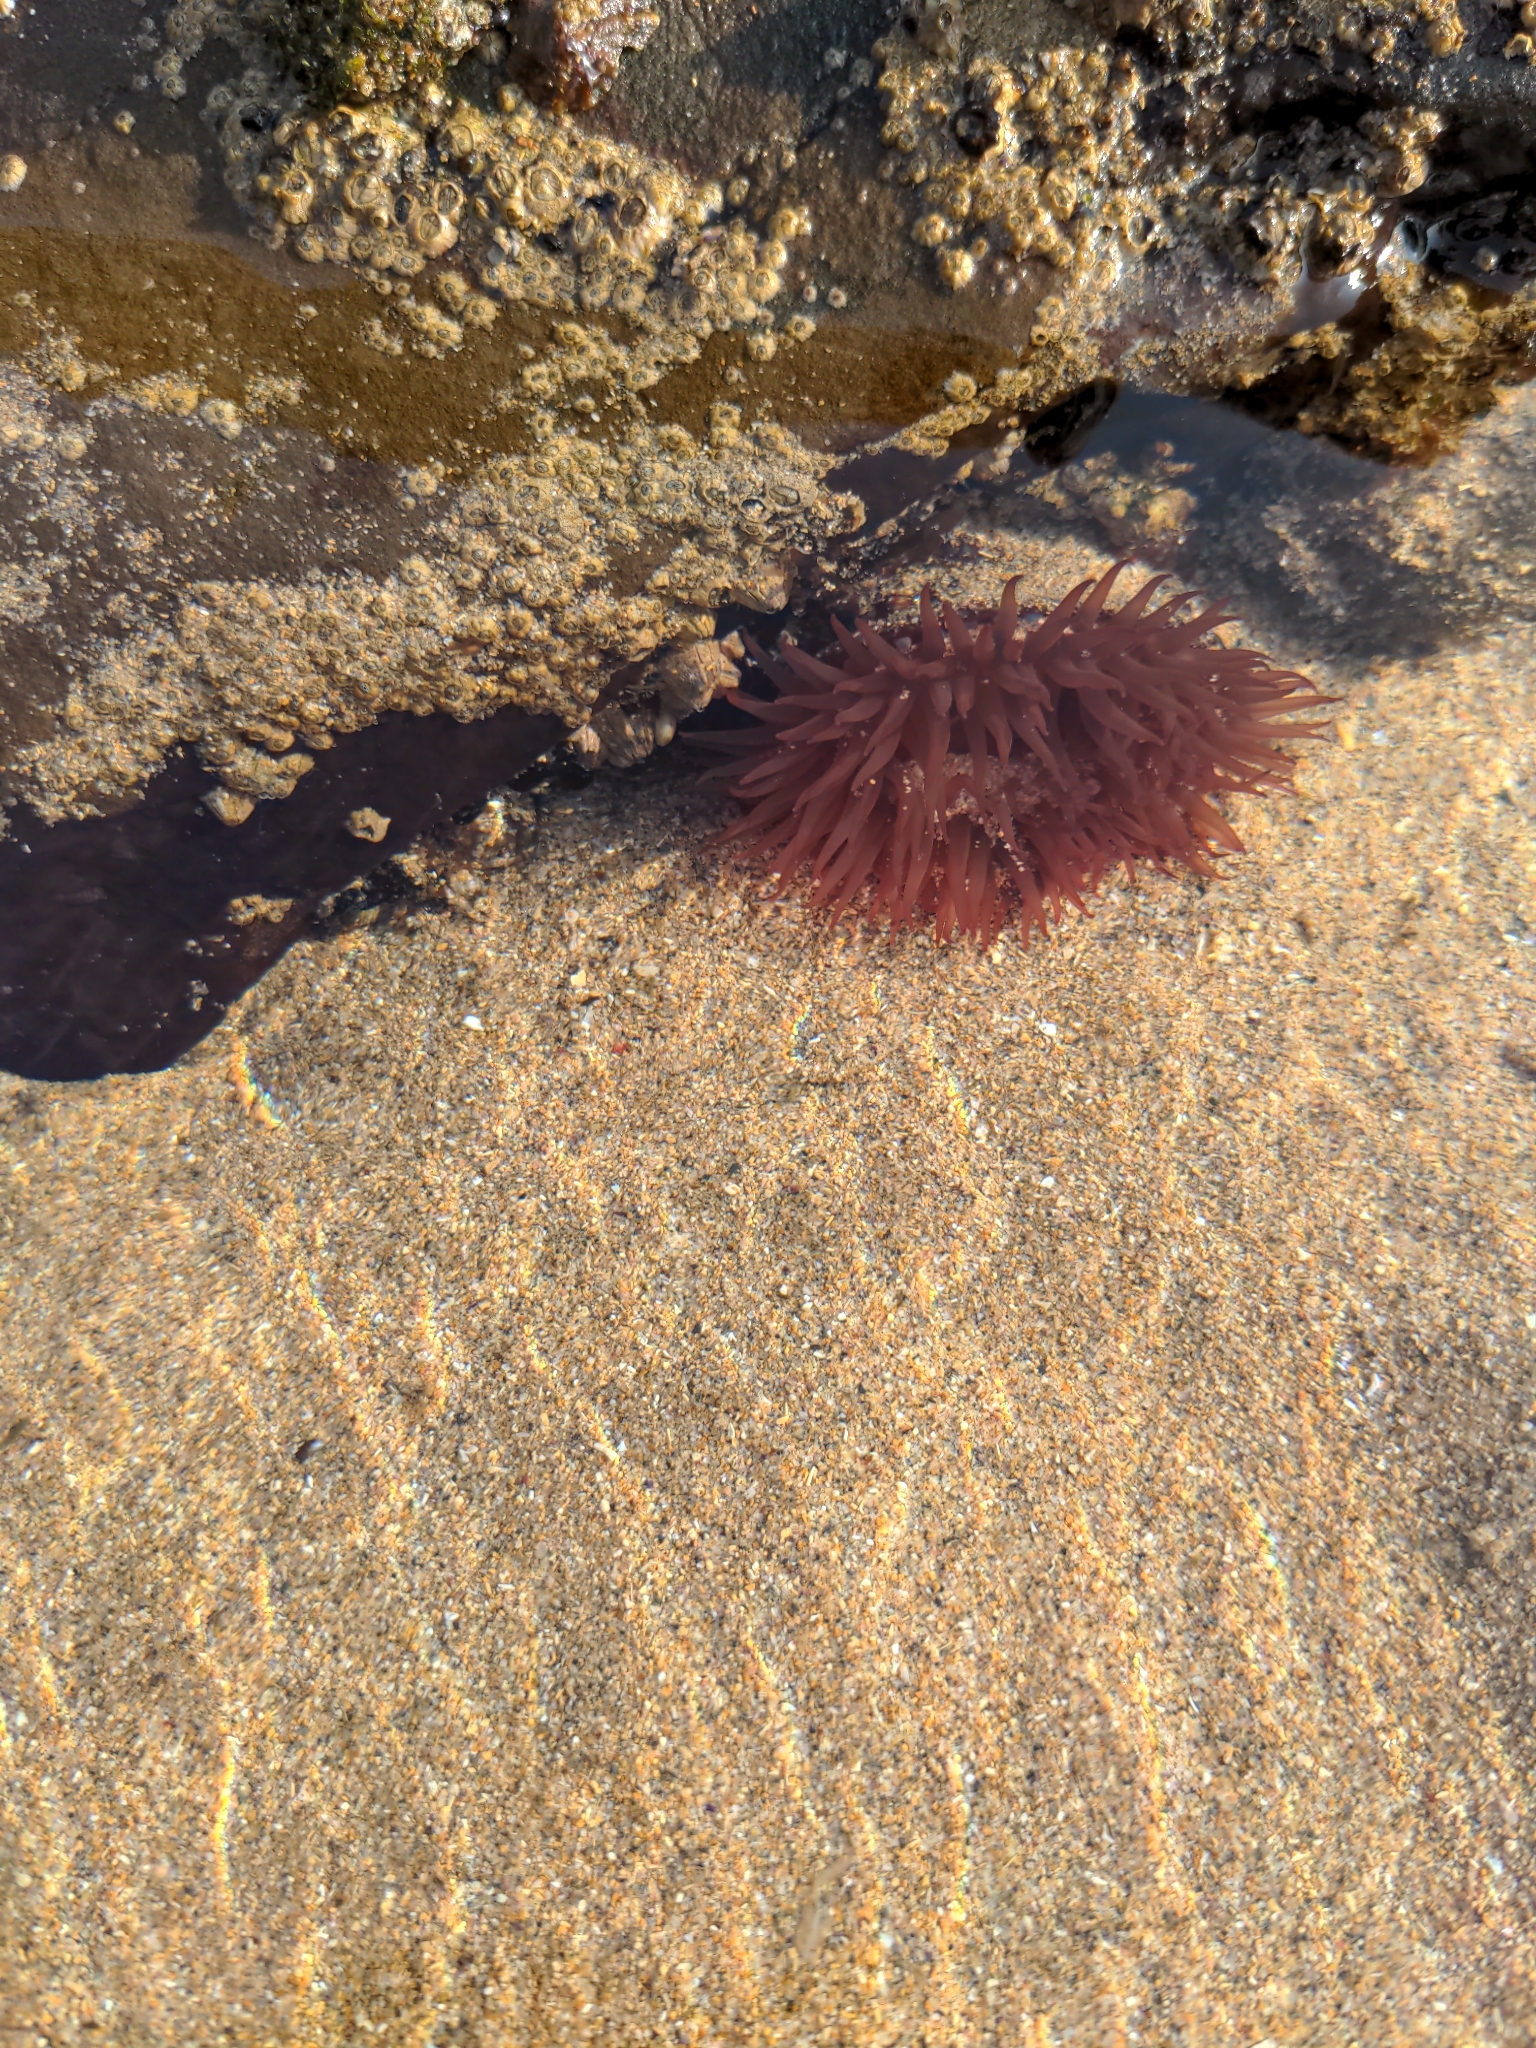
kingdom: Animalia
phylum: Cnidaria
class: Anthozoa
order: Actiniaria
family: Actiniidae
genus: Actinia
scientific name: Actinia equina
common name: Beadlet anemone
